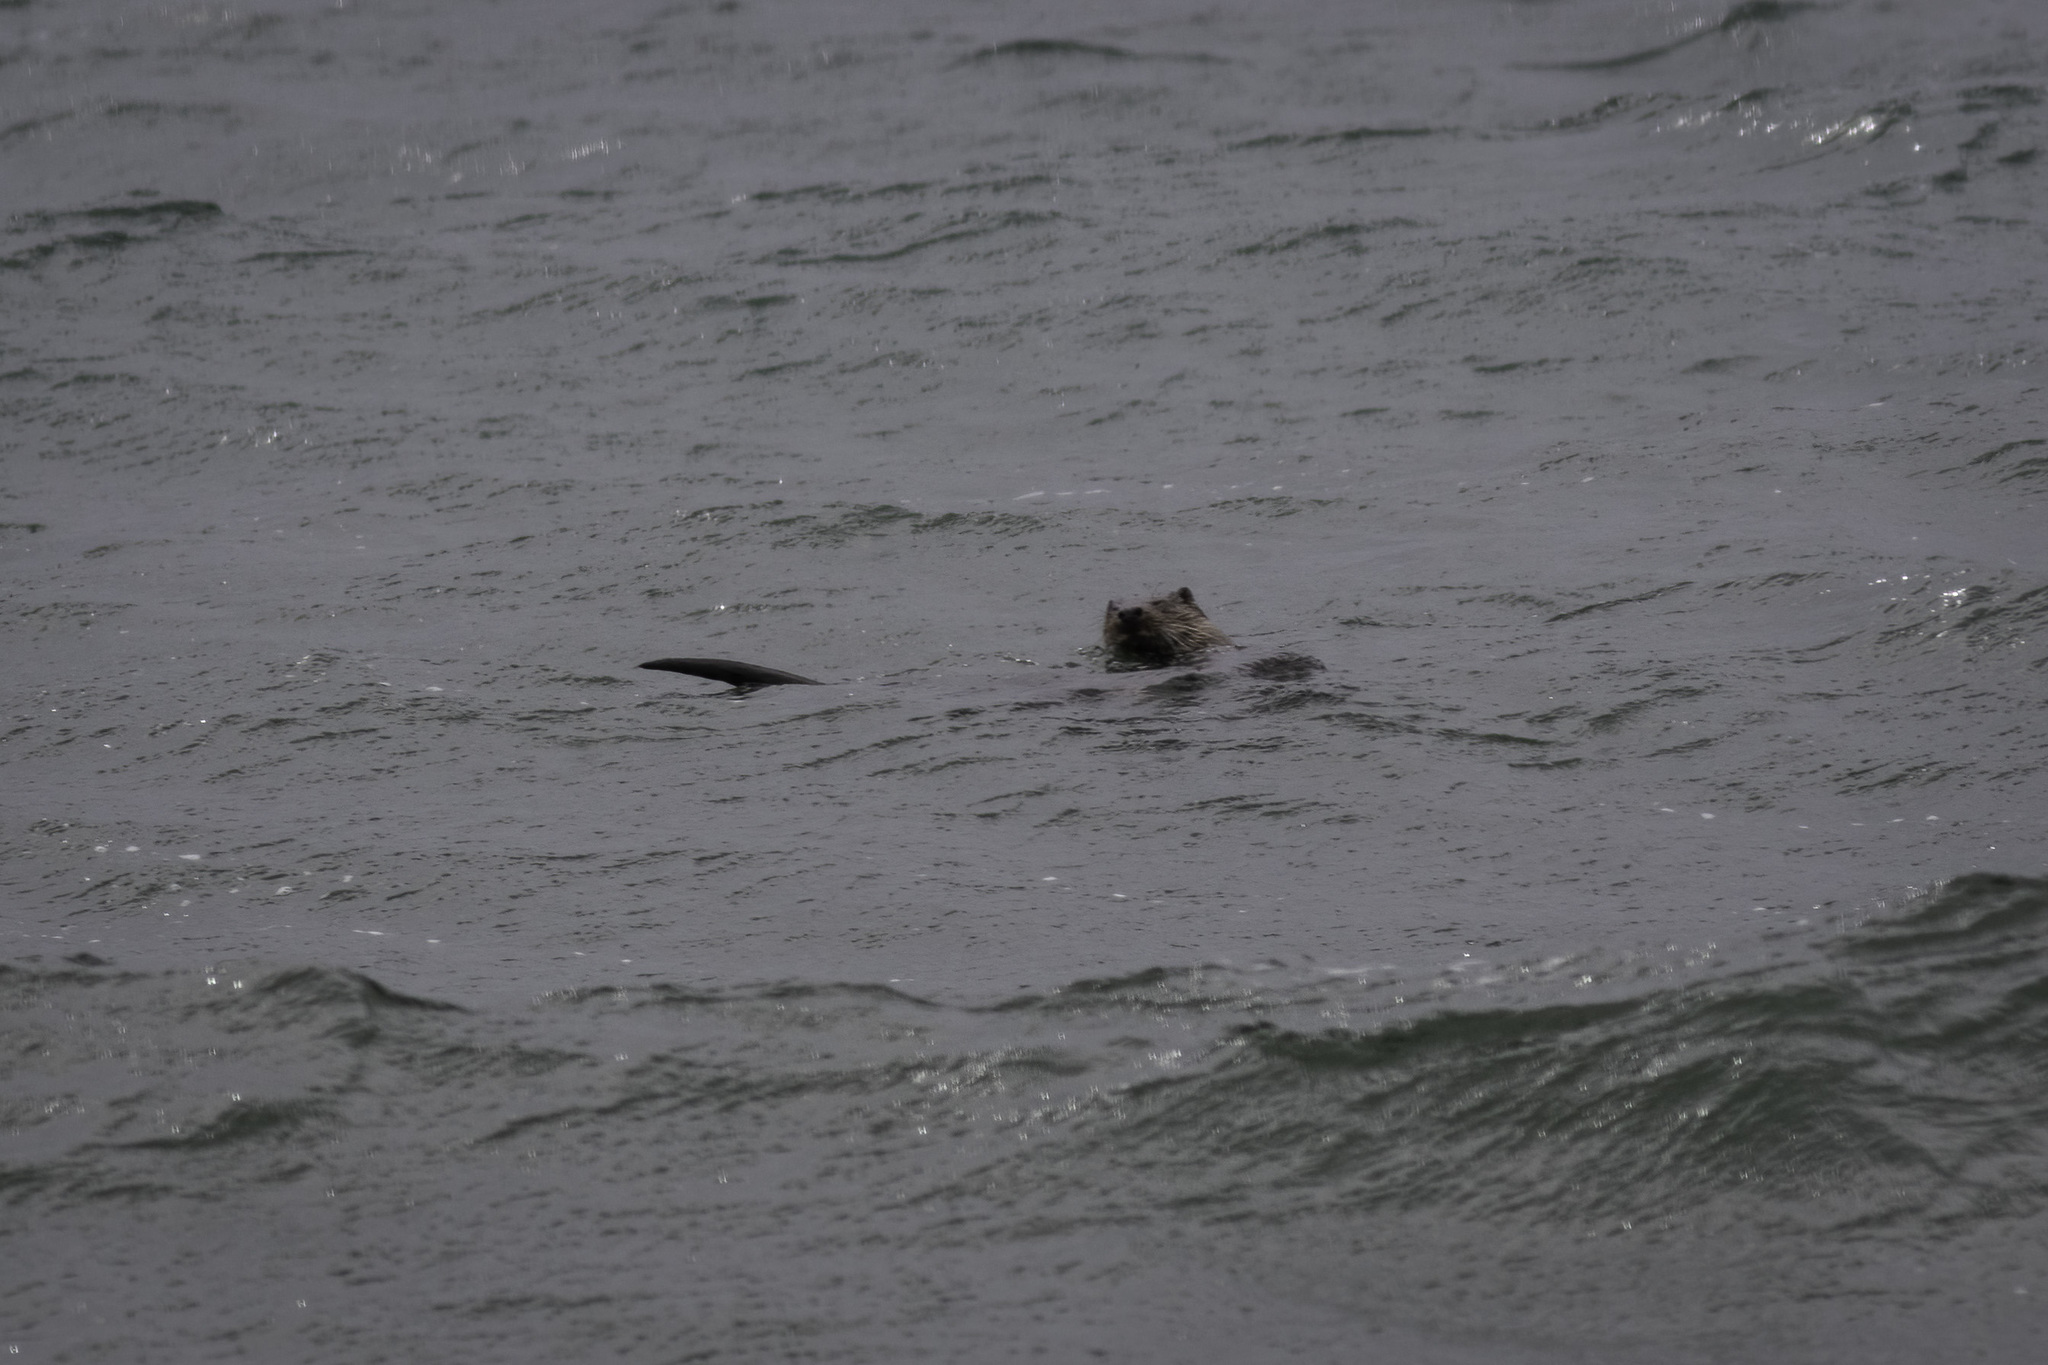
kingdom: Animalia
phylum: Chordata
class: Mammalia
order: Carnivora
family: Mustelidae
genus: Lutra
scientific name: Lutra lutra
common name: European otter
